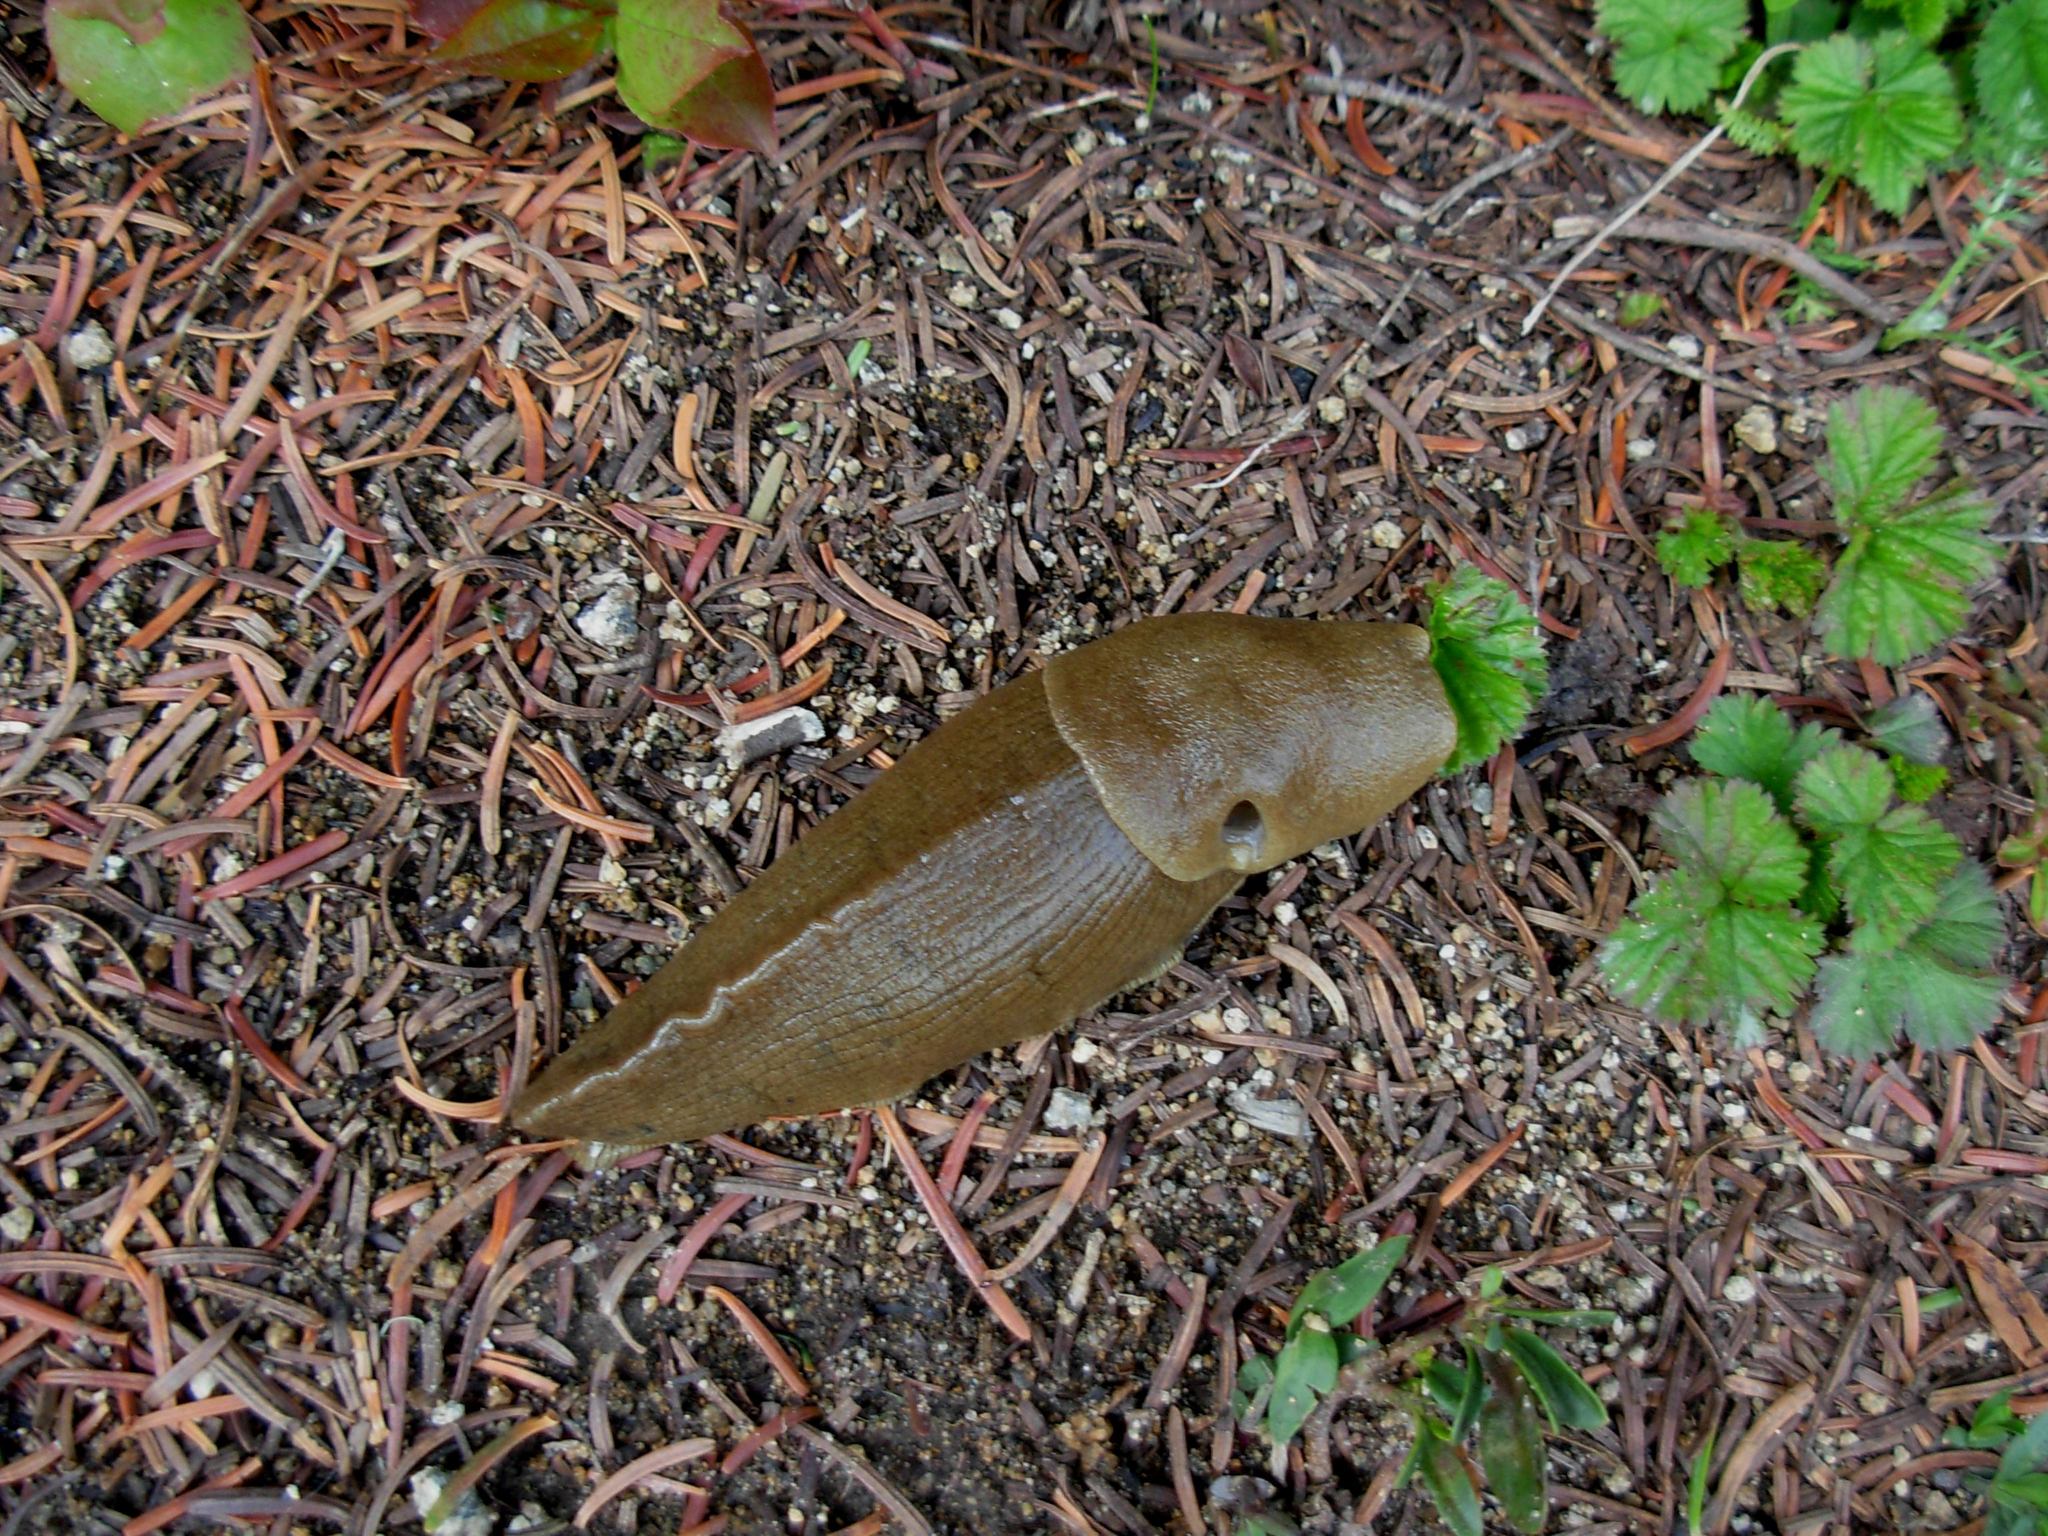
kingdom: Animalia
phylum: Mollusca
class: Gastropoda
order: Stylommatophora
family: Ariolimacidae
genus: Ariolimax
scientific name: Ariolimax columbianus
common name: Pacific banana slug
